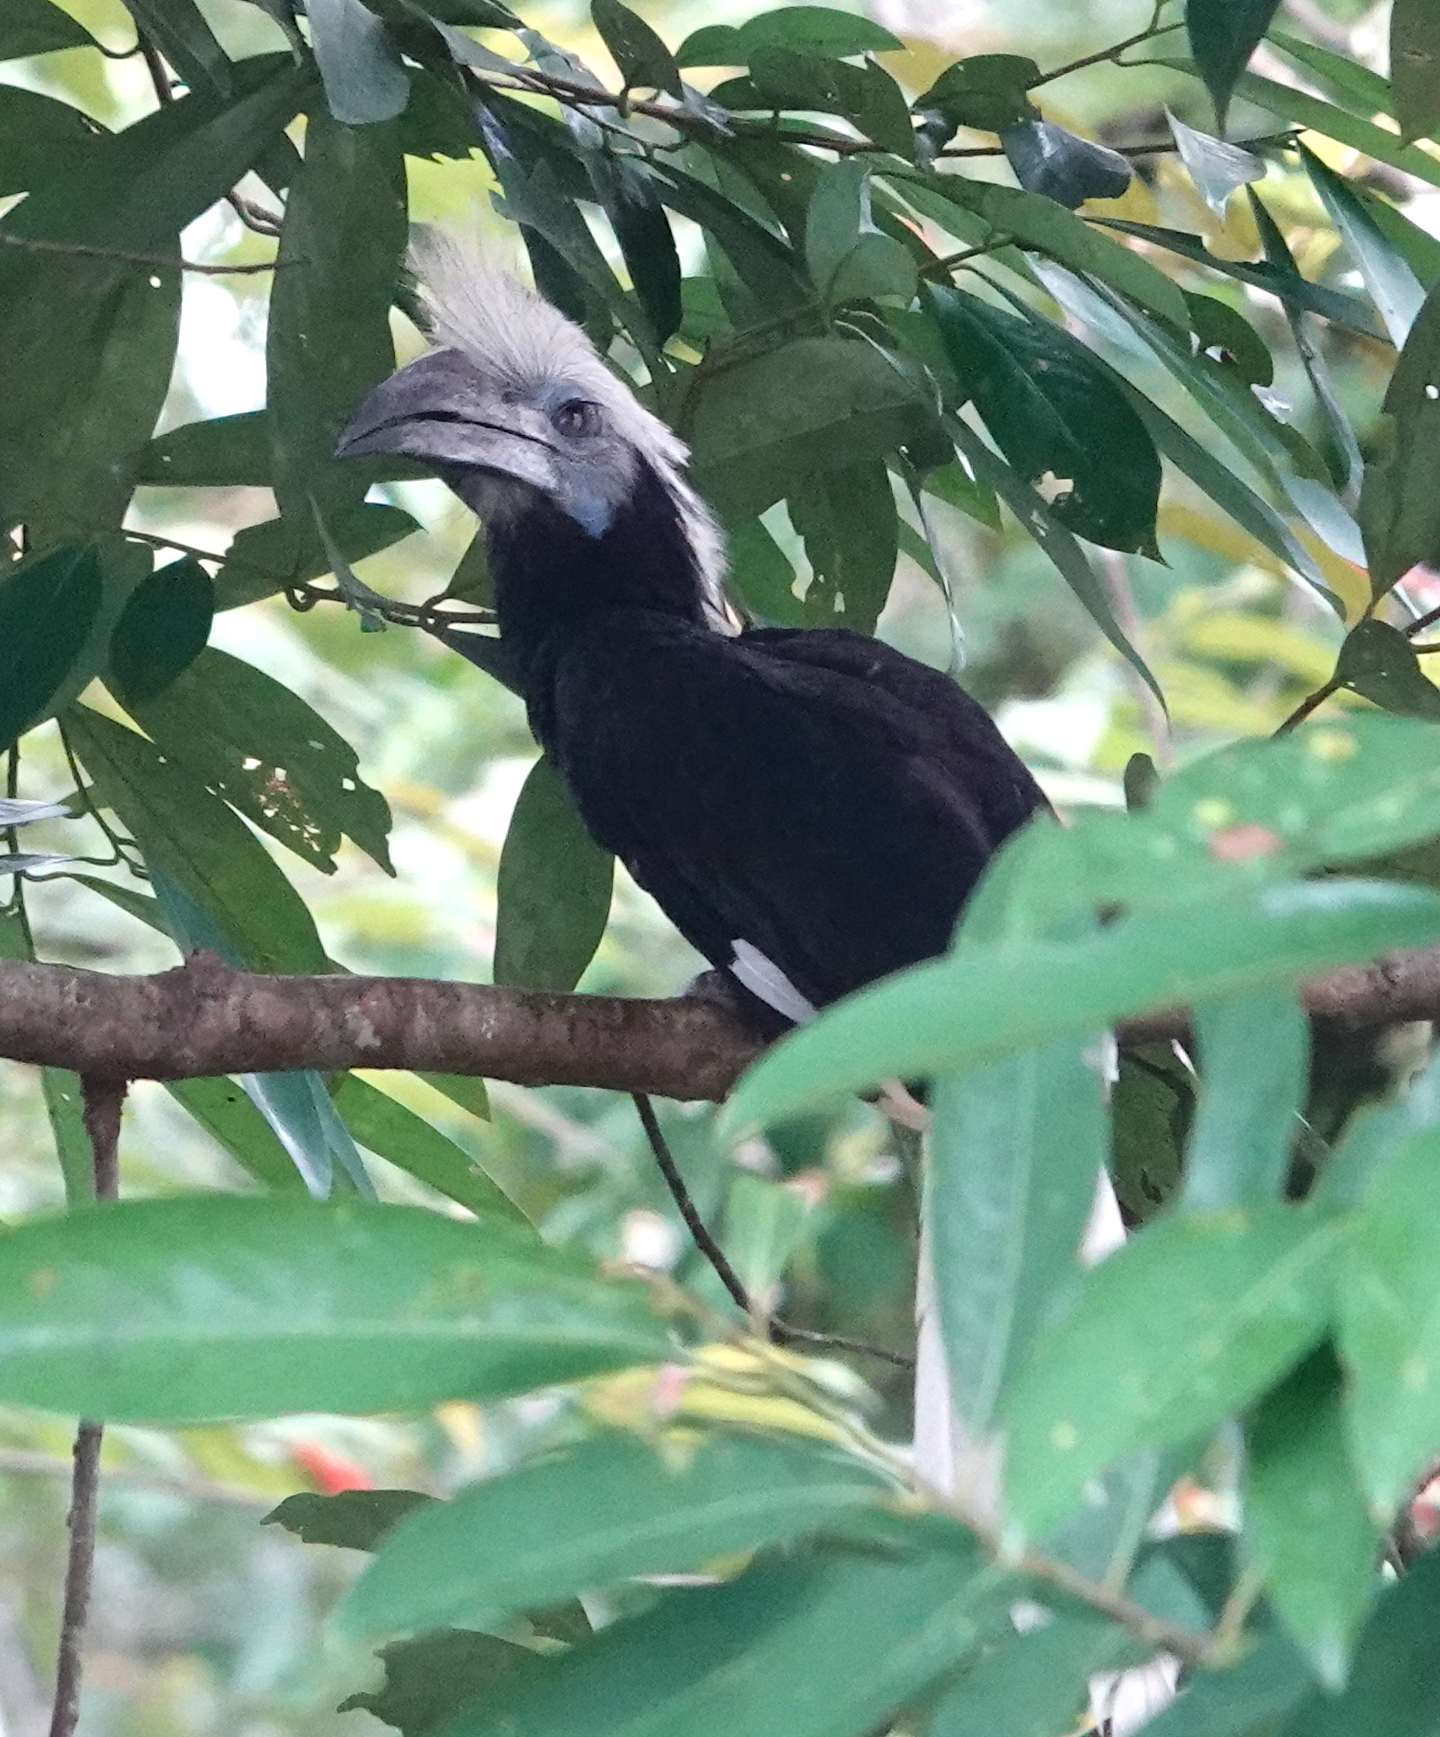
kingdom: Animalia
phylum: Chordata
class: Aves
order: Bucerotiformes
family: Bucerotidae
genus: Berenicornis
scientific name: Berenicornis comatus
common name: White-crowned hornbill
